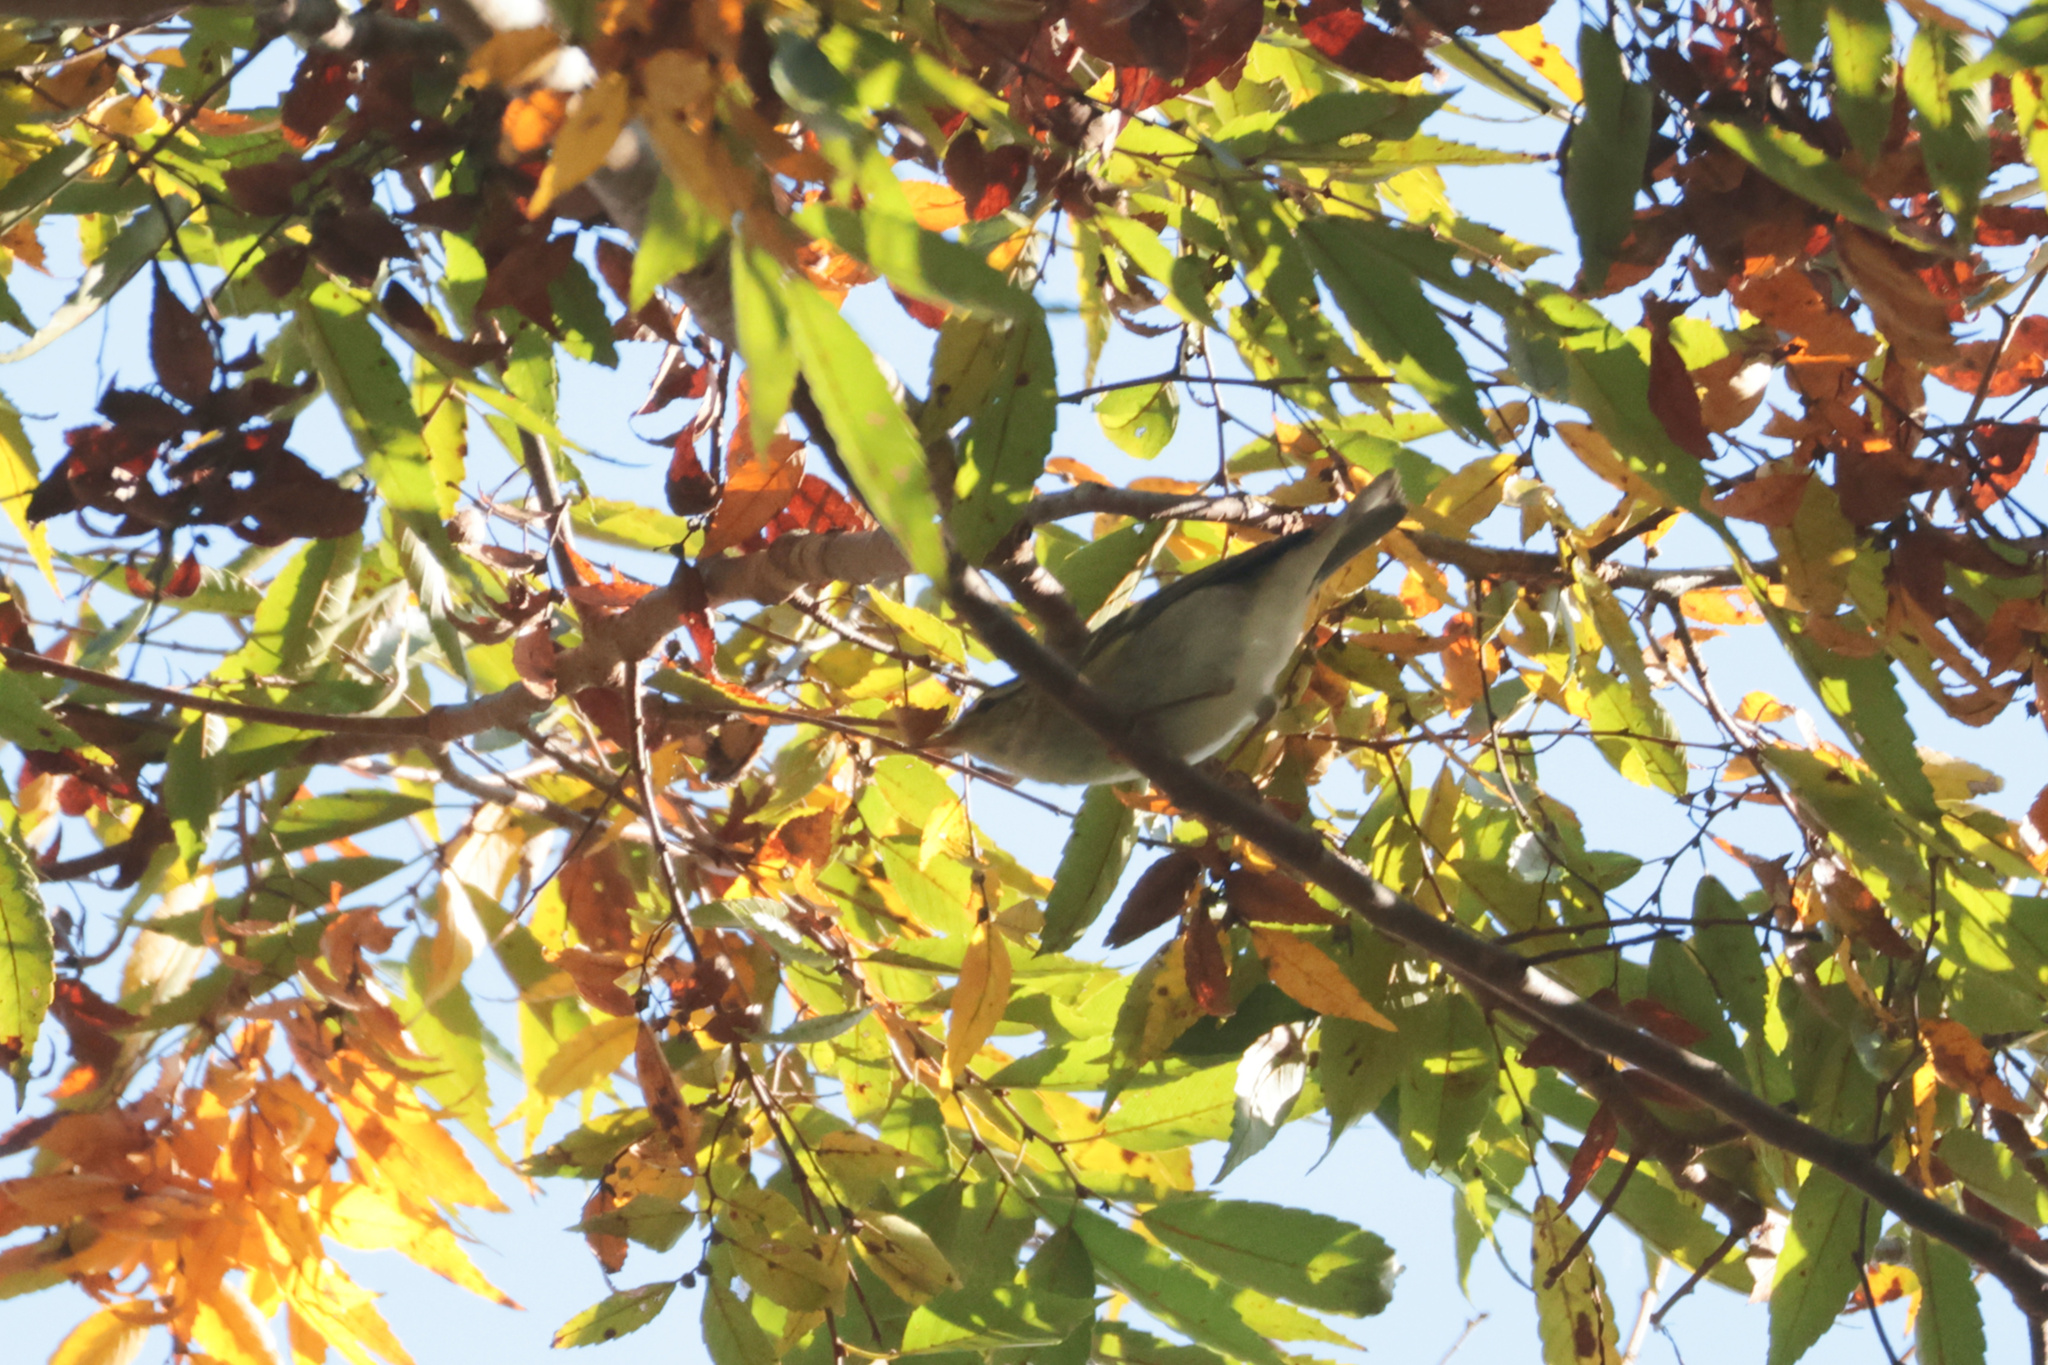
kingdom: Animalia
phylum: Chordata
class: Aves
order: Passeriformes
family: Phylloscopidae
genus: Phylloscopus
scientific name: Phylloscopus inornatus
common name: Yellow-browed warbler
